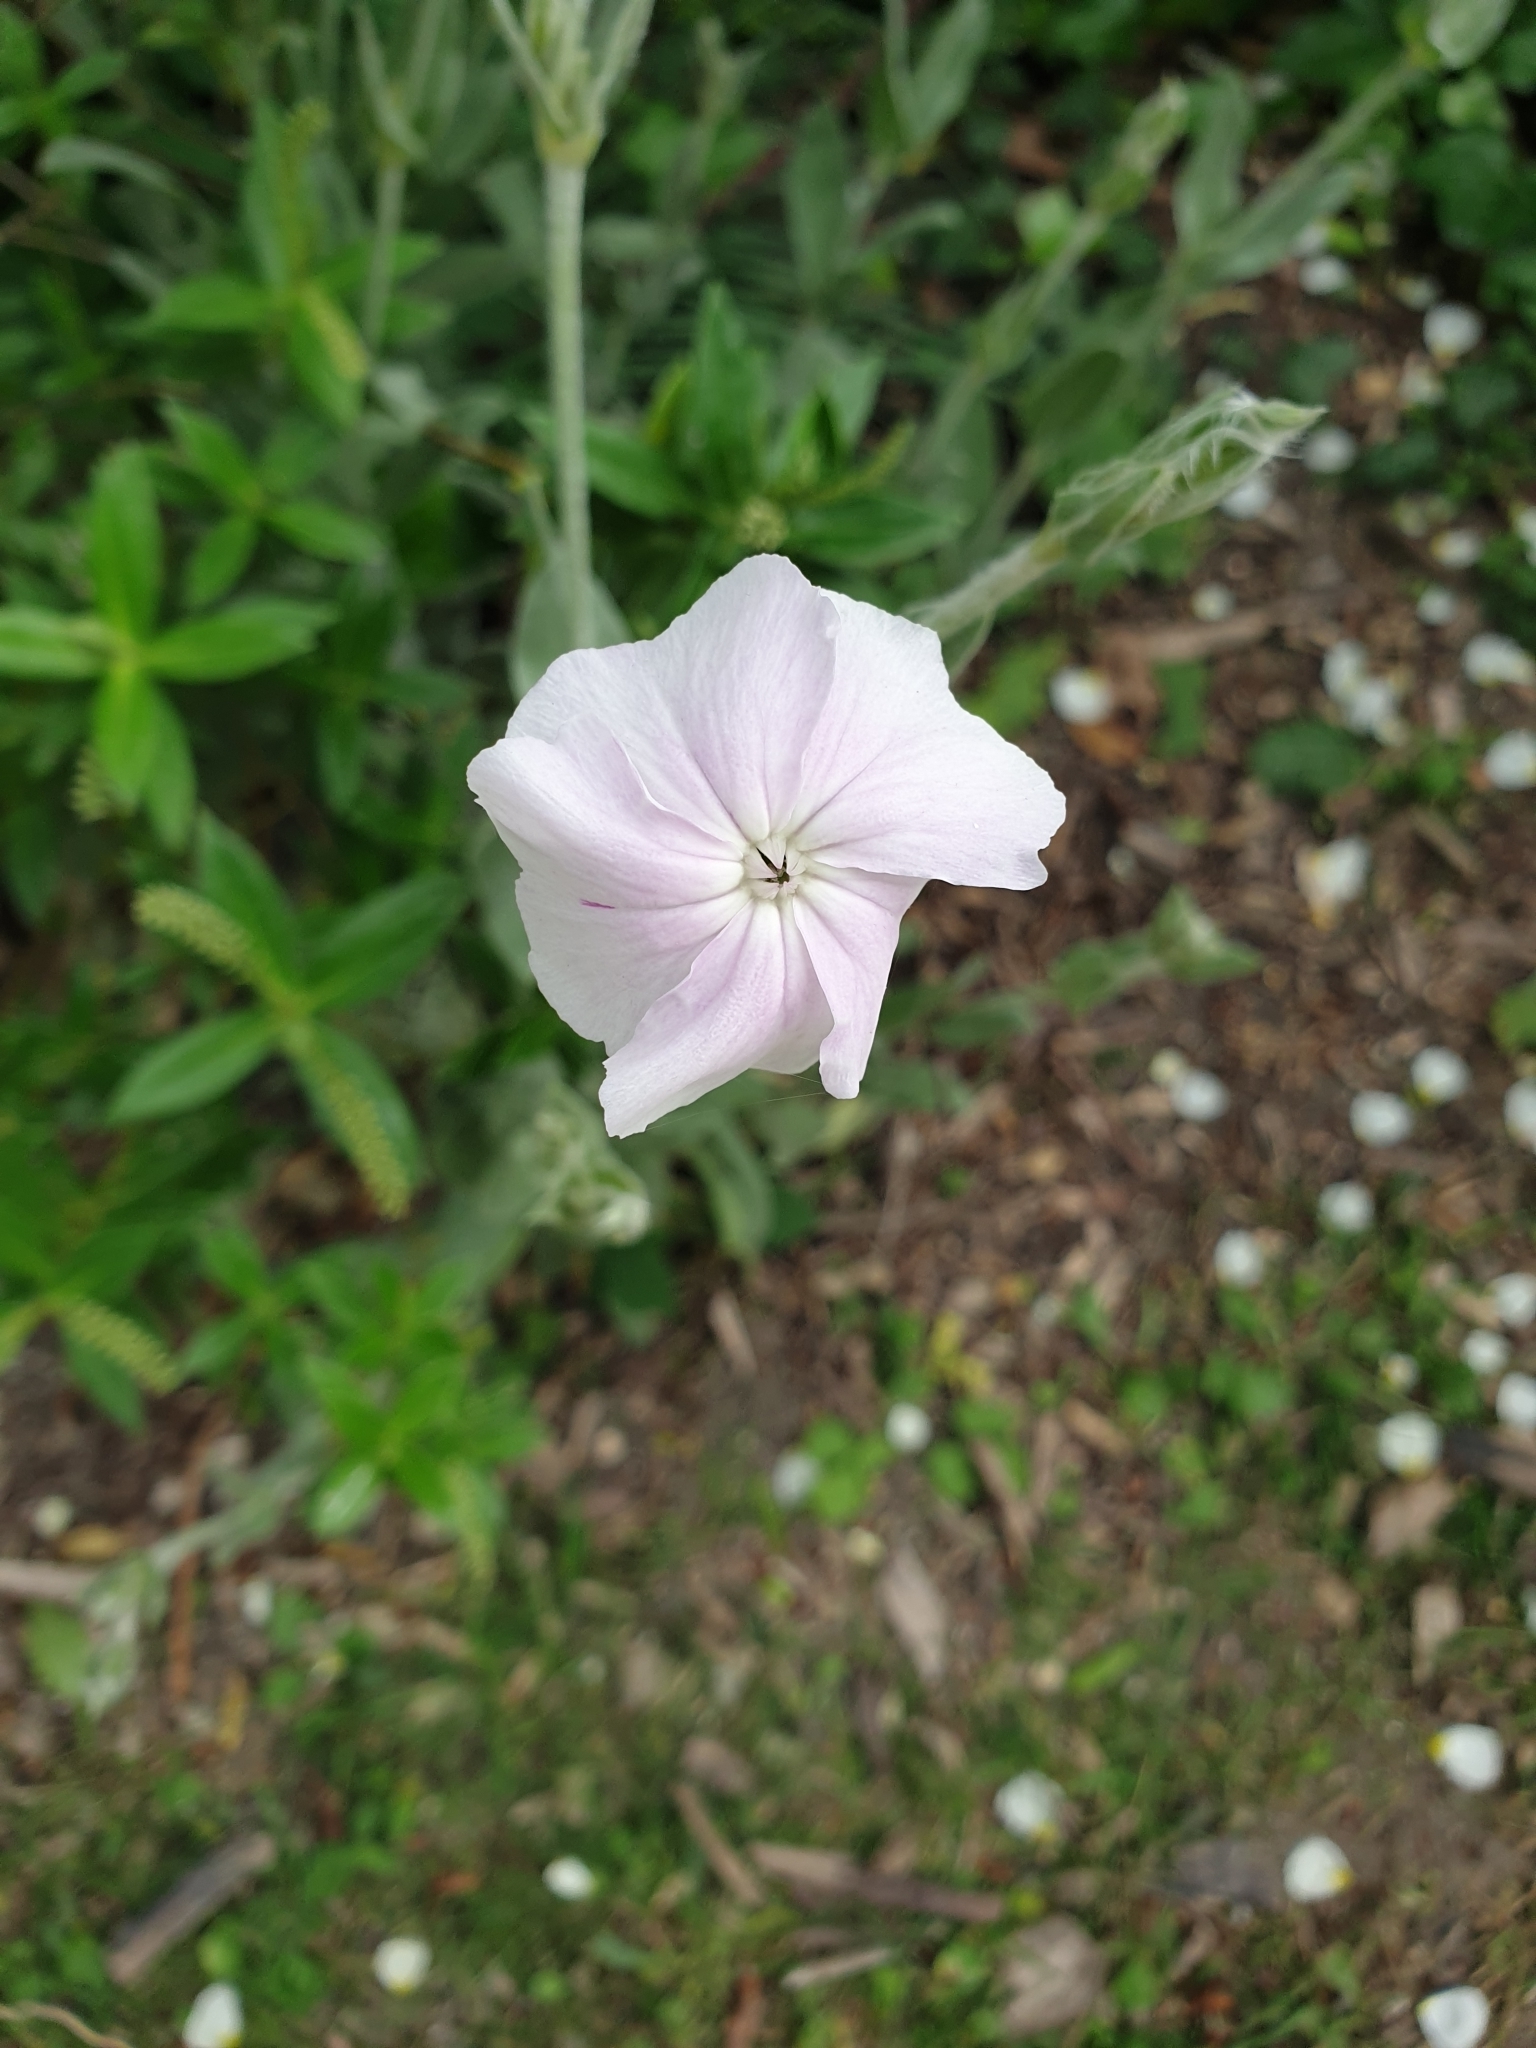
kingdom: Plantae
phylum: Tracheophyta
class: Magnoliopsida
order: Caryophyllales
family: Caryophyllaceae
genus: Silene
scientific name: Silene coronaria
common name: Rose campion
